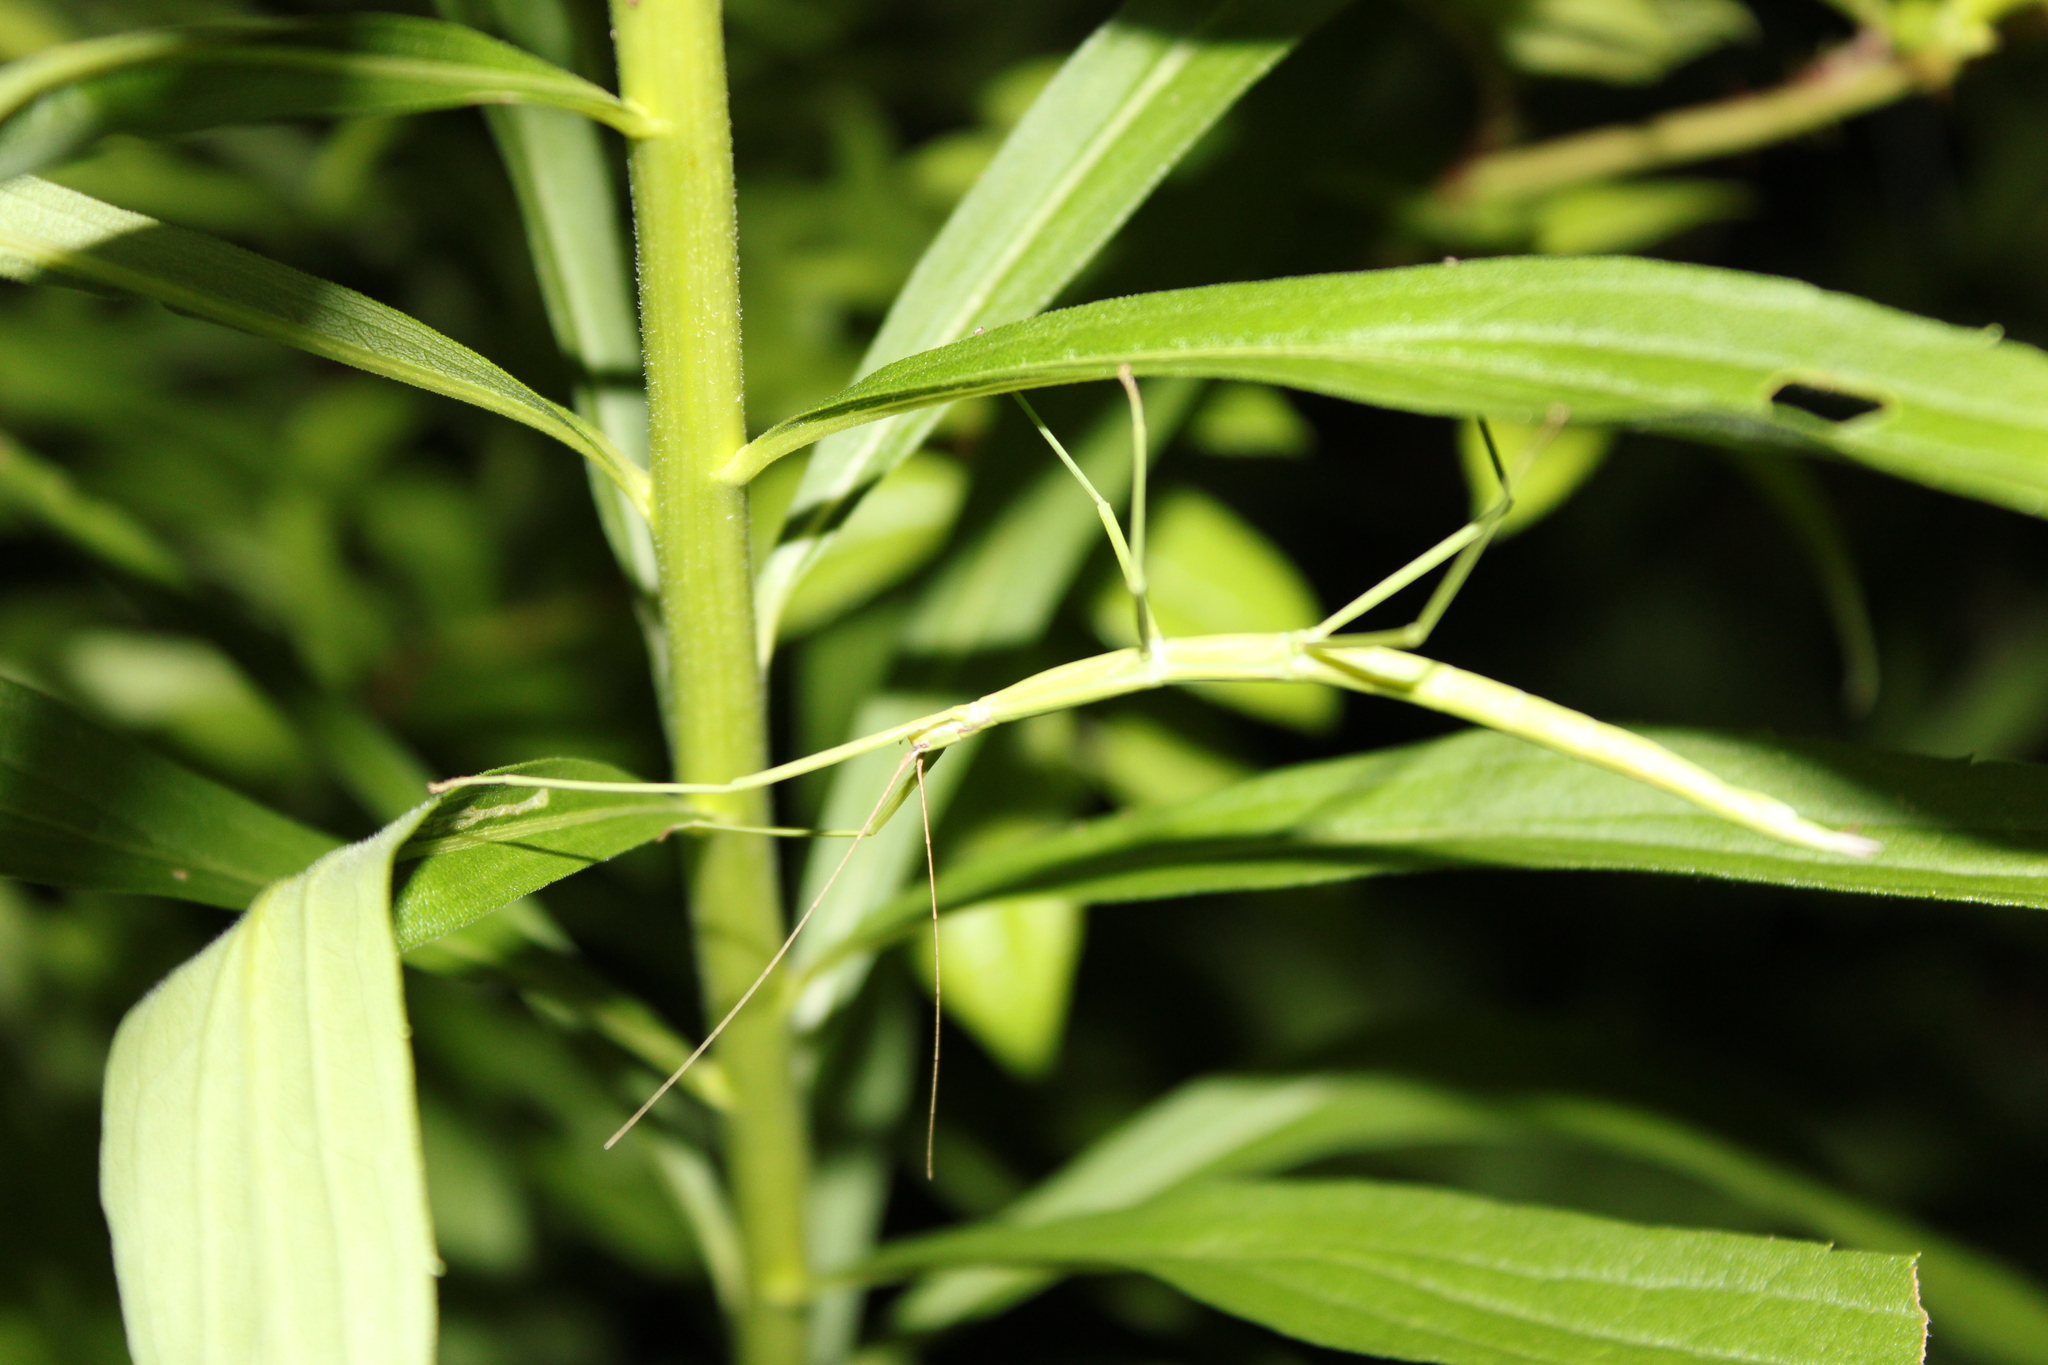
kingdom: Animalia
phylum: Arthropoda
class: Insecta
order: Phasmida
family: Diapheromeridae
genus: Manomera
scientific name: Manomera blatchleyi
